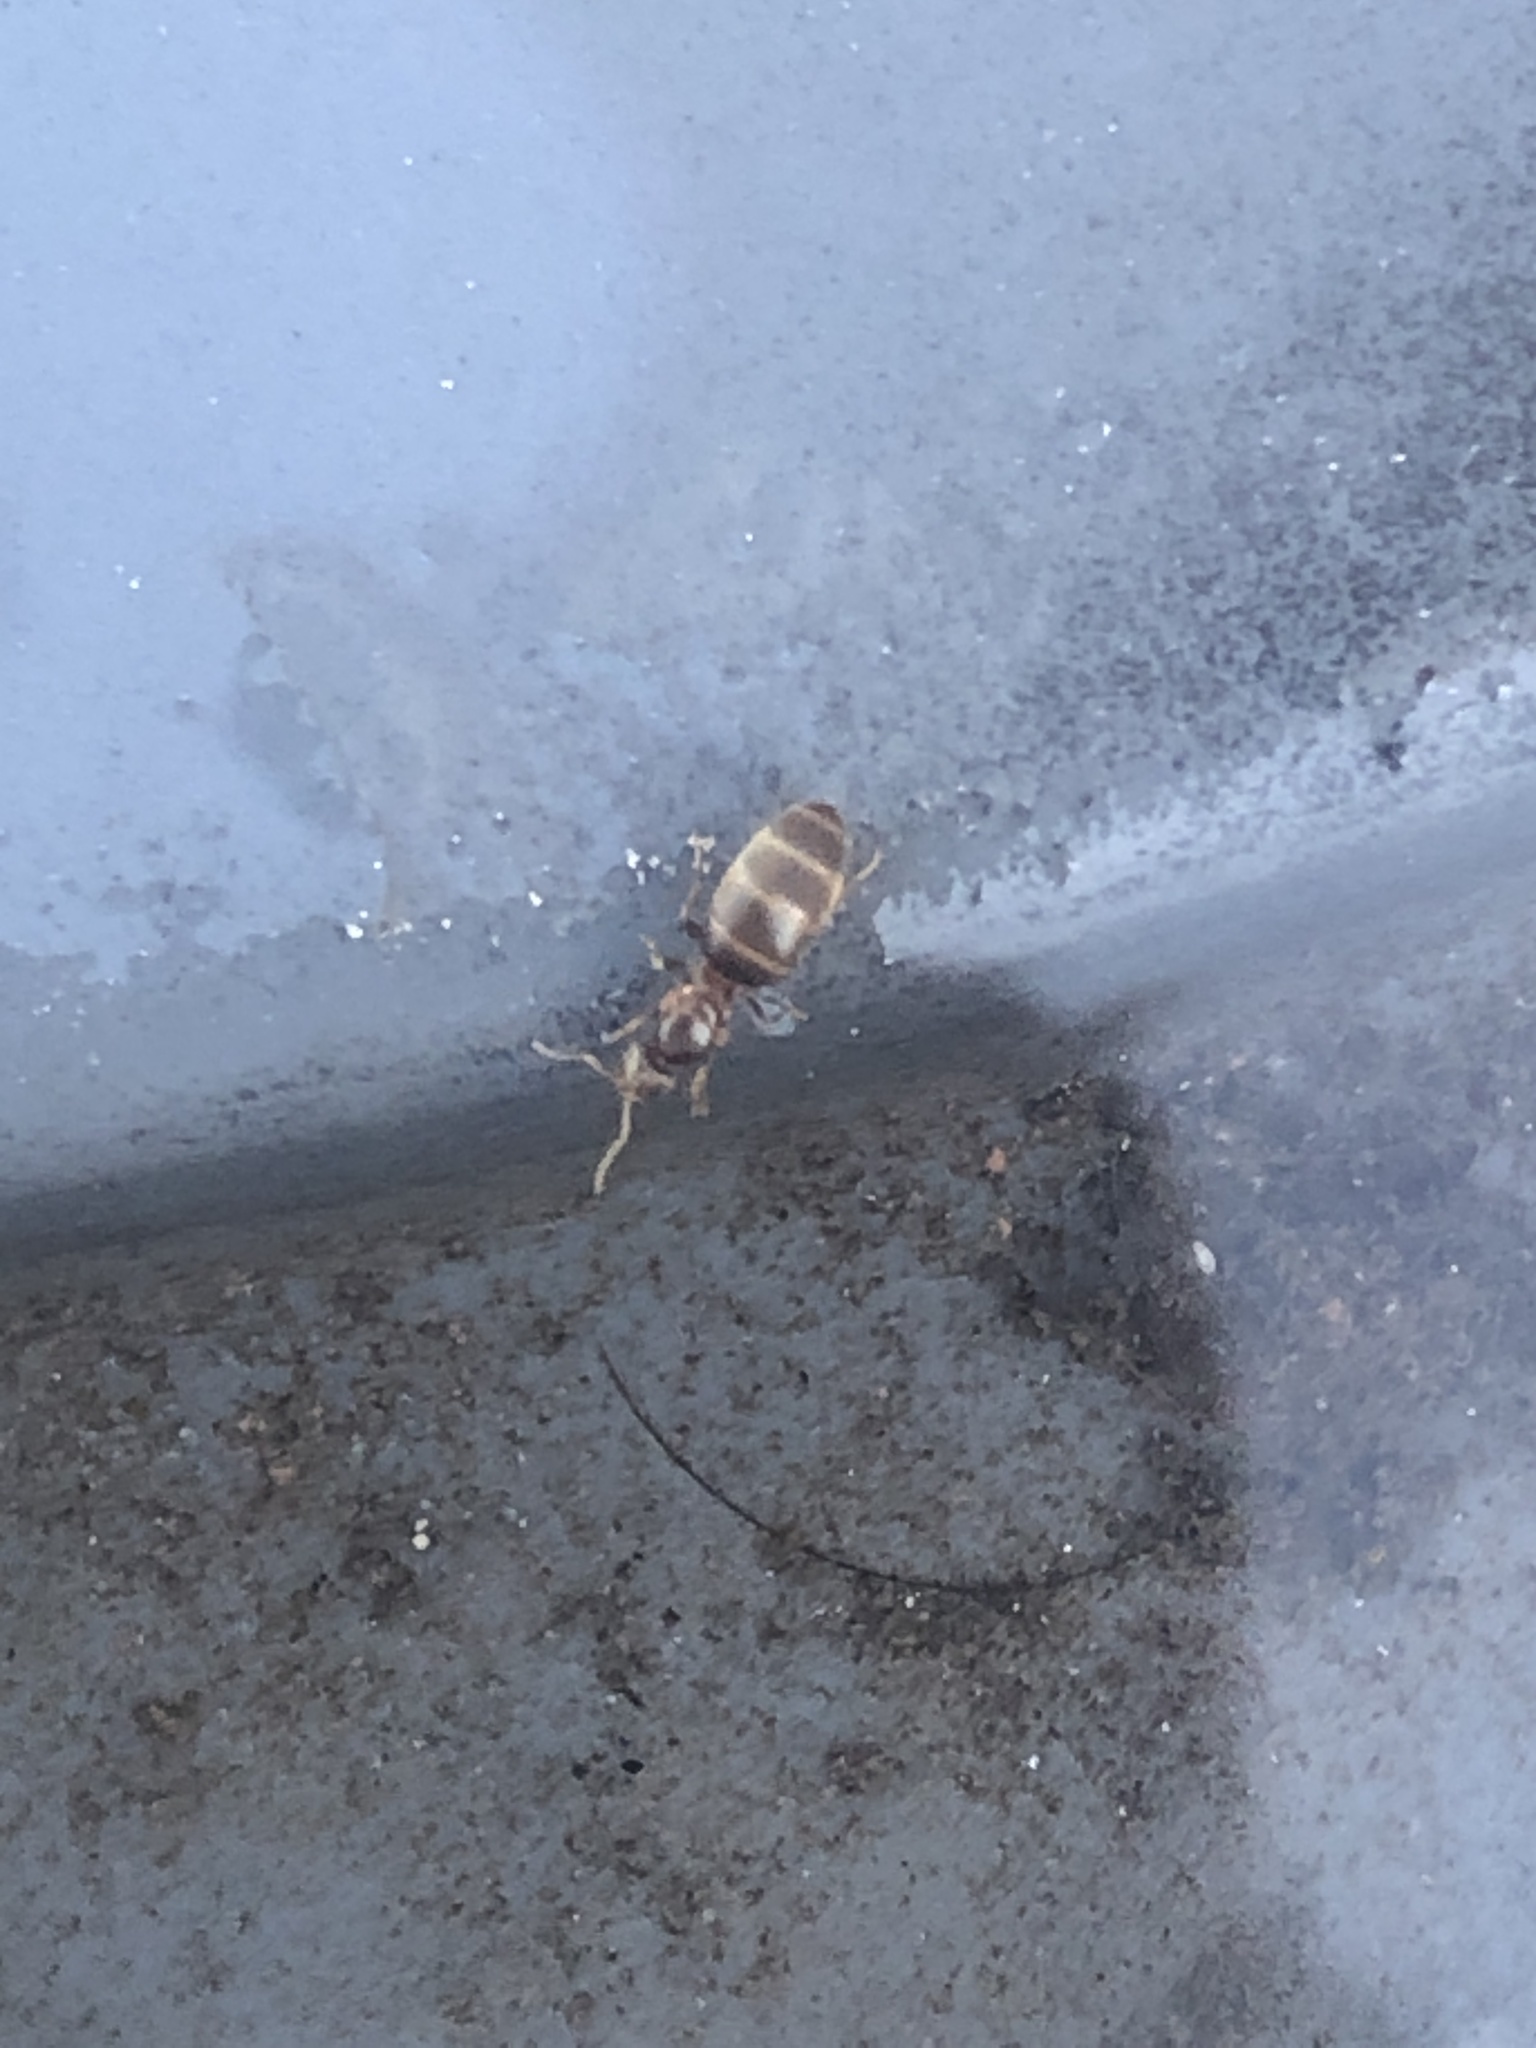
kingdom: Animalia
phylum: Arthropoda
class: Insecta
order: Hymenoptera
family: Formicidae
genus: Brachymyrmex
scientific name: Brachymyrmex obscurior
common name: Obscure rover ant
